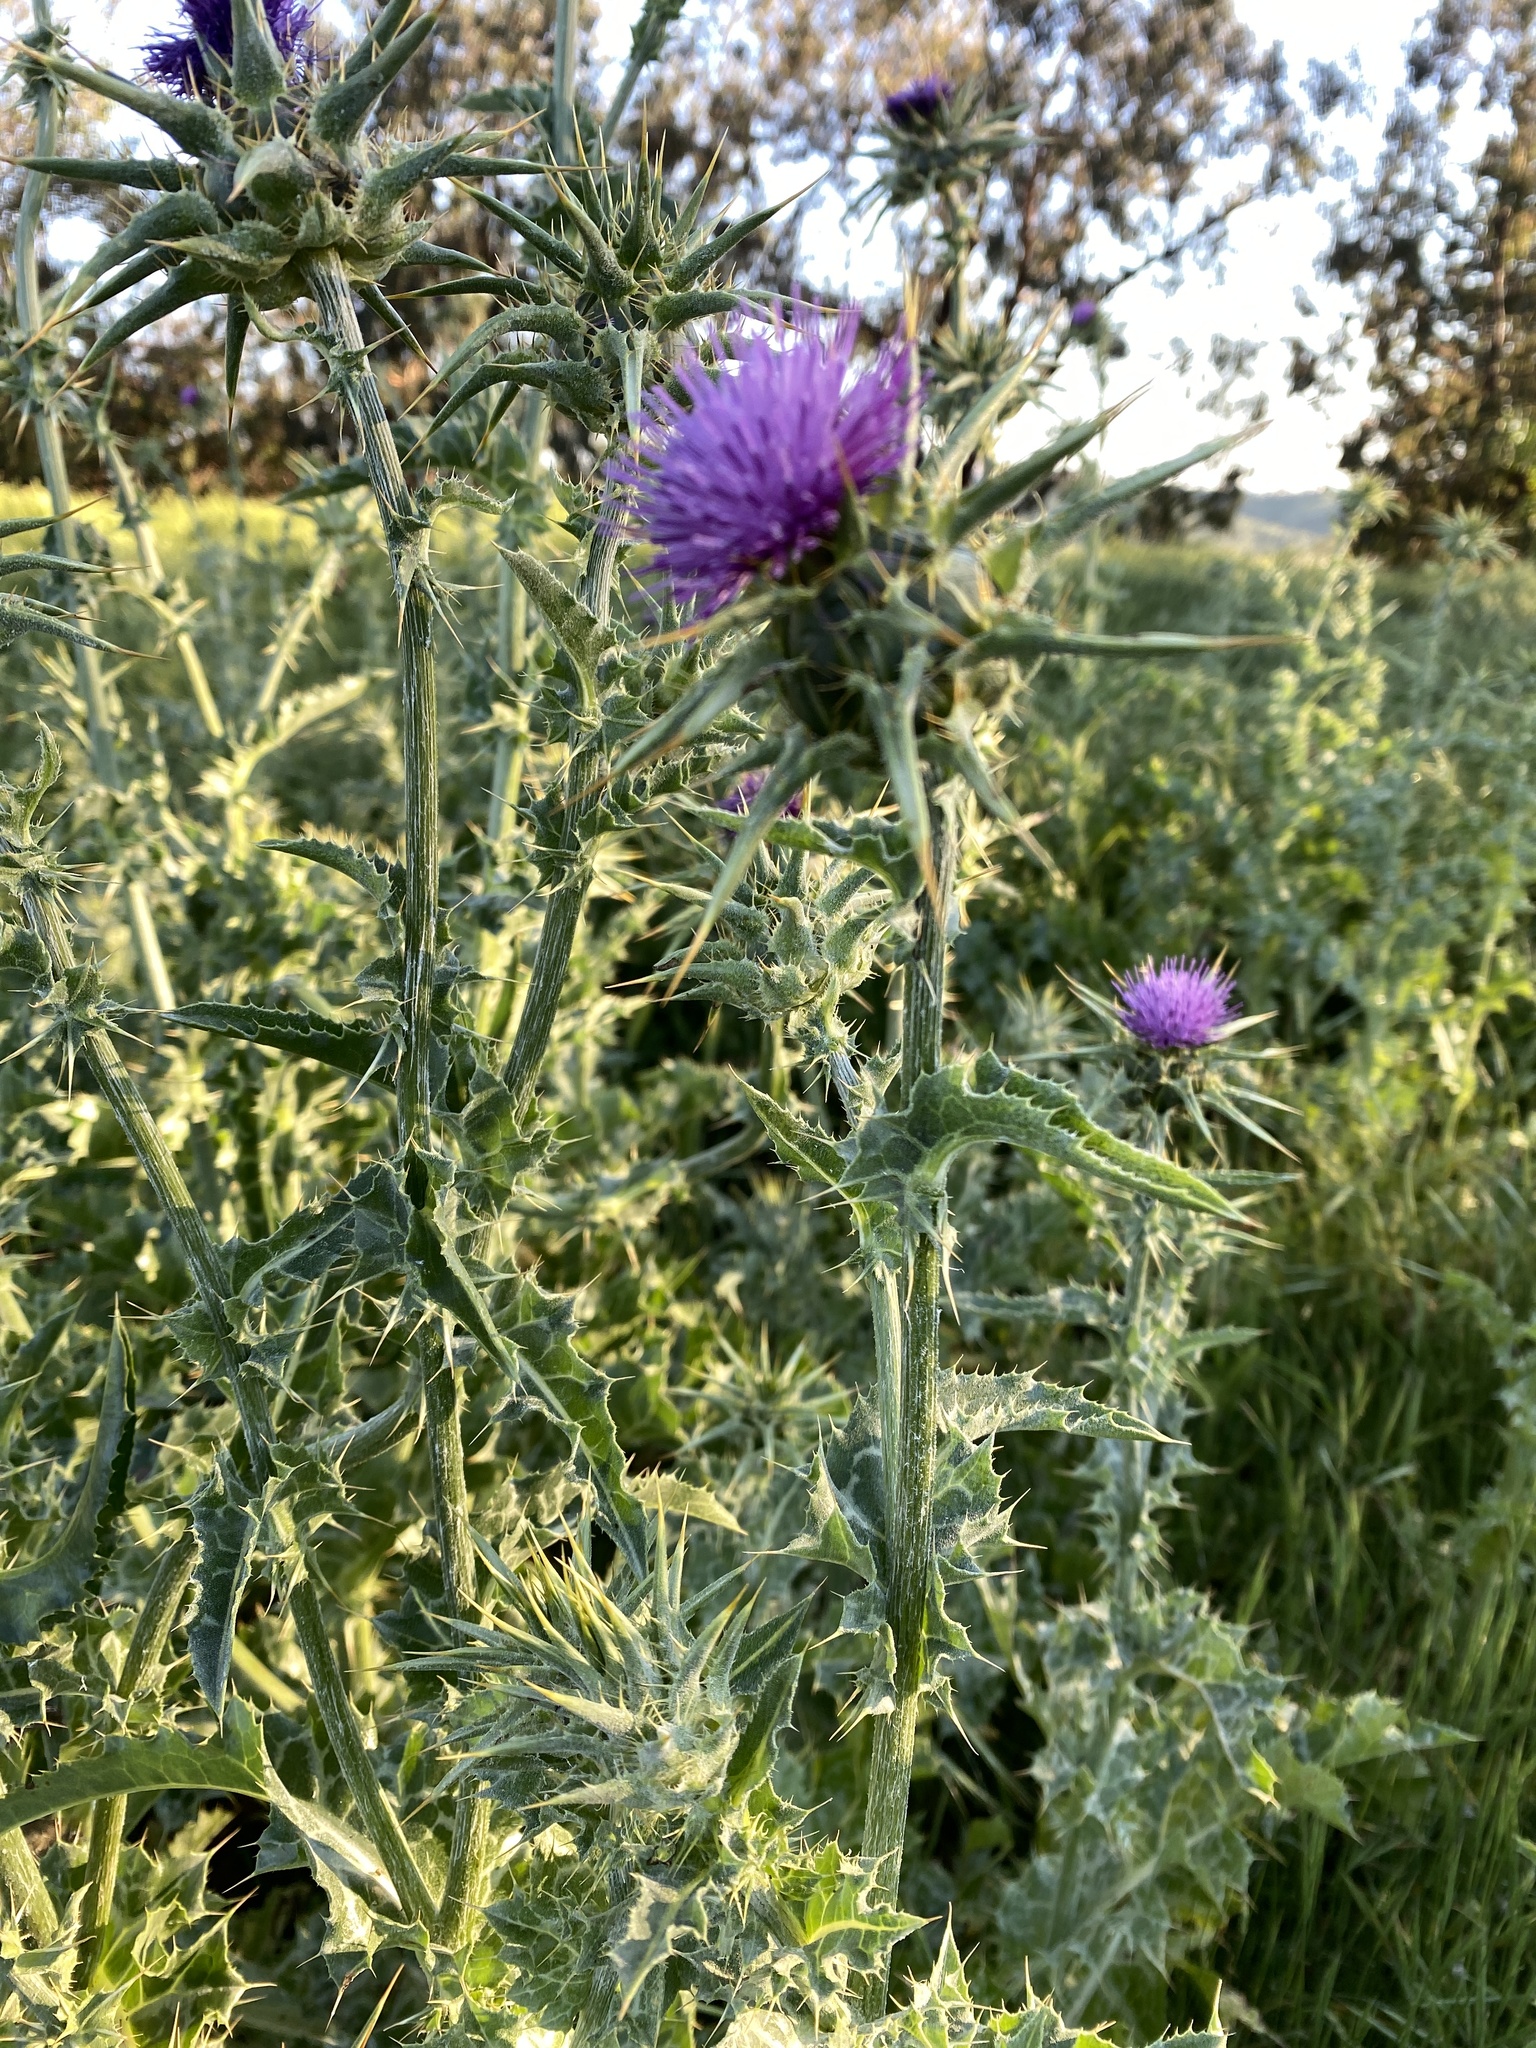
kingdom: Plantae
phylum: Tracheophyta
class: Magnoliopsida
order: Asterales
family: Asteraceae
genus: Silybum
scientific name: Silybum marianum
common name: Milk thistle
